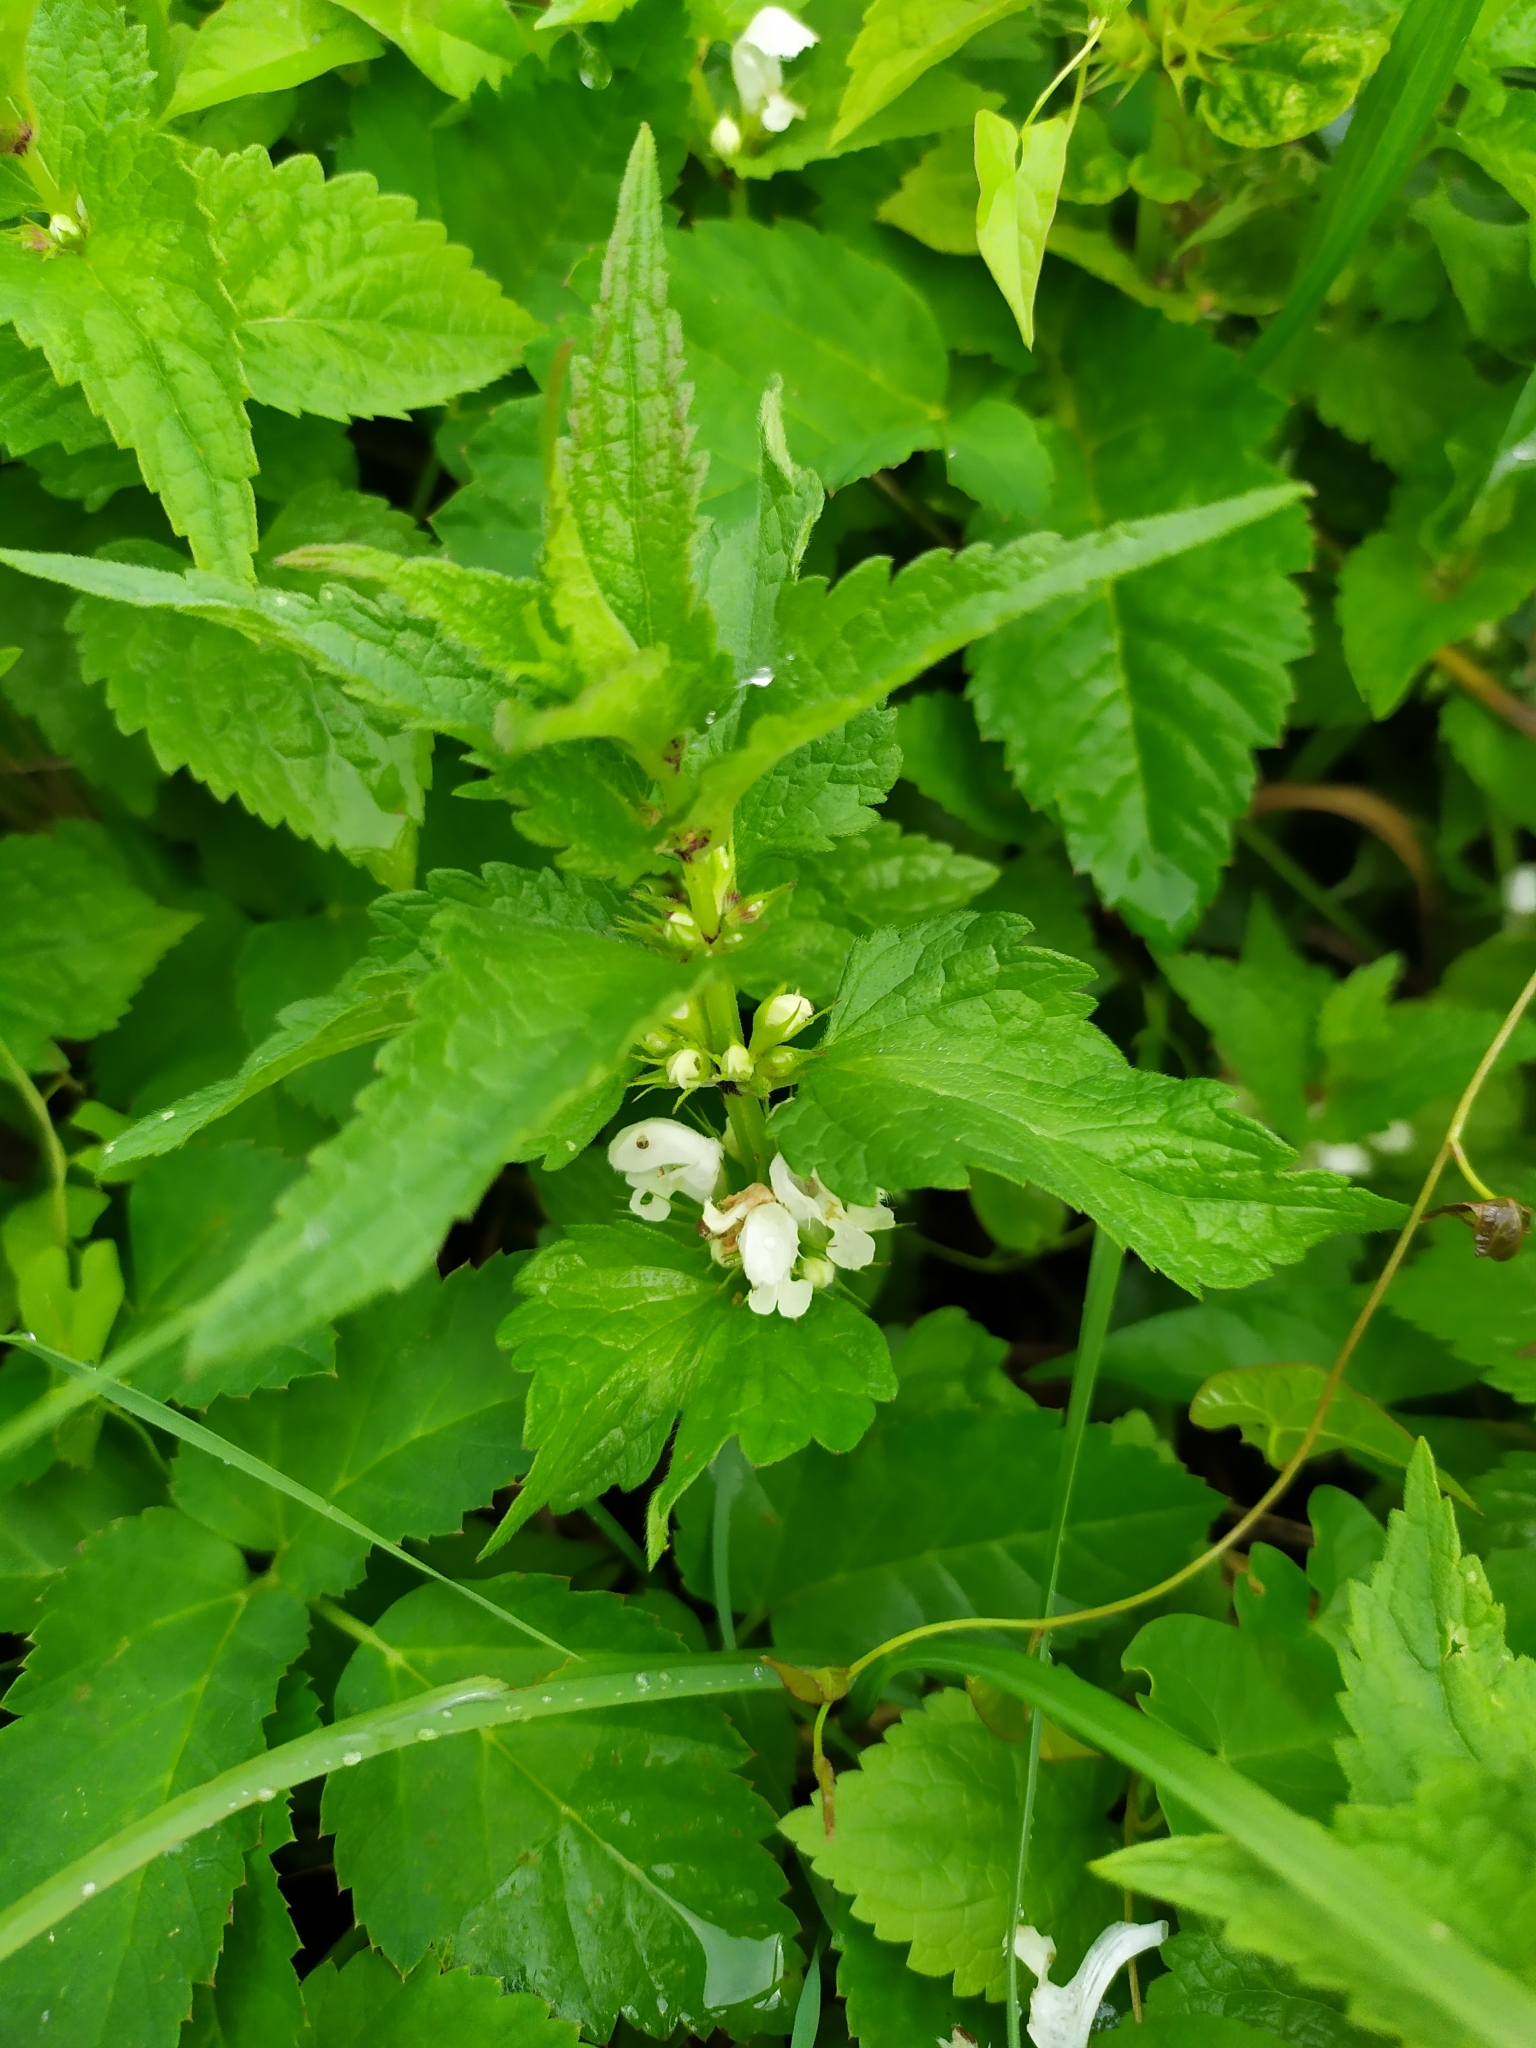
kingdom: Plantae
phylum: Tracheophyta
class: Magnoliopsida
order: Lamiales
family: Lamiaceae
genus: Lamium
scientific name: Lamium album
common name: White dead-nettle
